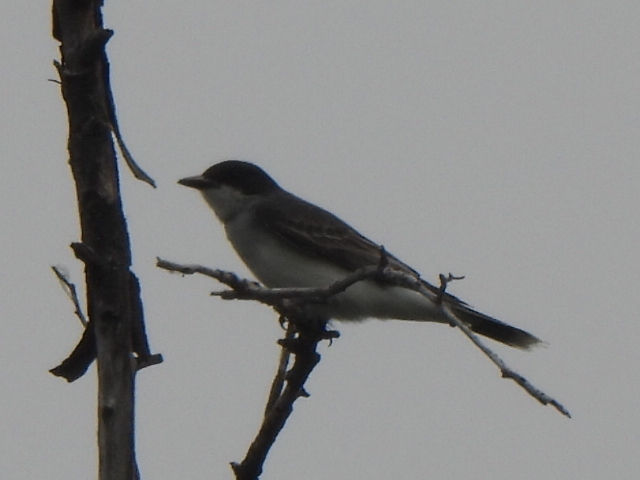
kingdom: Animalia
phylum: Chordata
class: Aves
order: Passeriformes
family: Tyrannidae
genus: Tyrannus
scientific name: Tyrannus tyrannus
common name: Eastern kingbird
